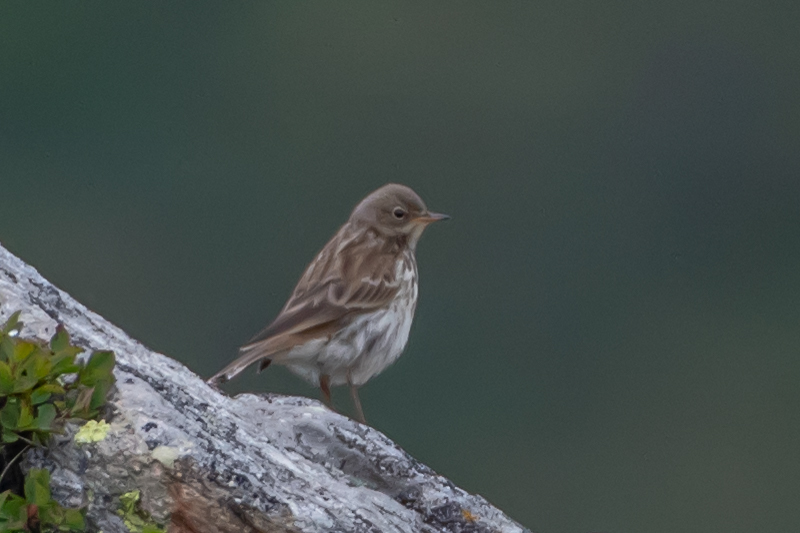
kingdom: Animalia
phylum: Chordata
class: Aves
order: Passeriformes
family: Motacillidae
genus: Anthus
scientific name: Anthus spinoletta
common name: Water pipit
